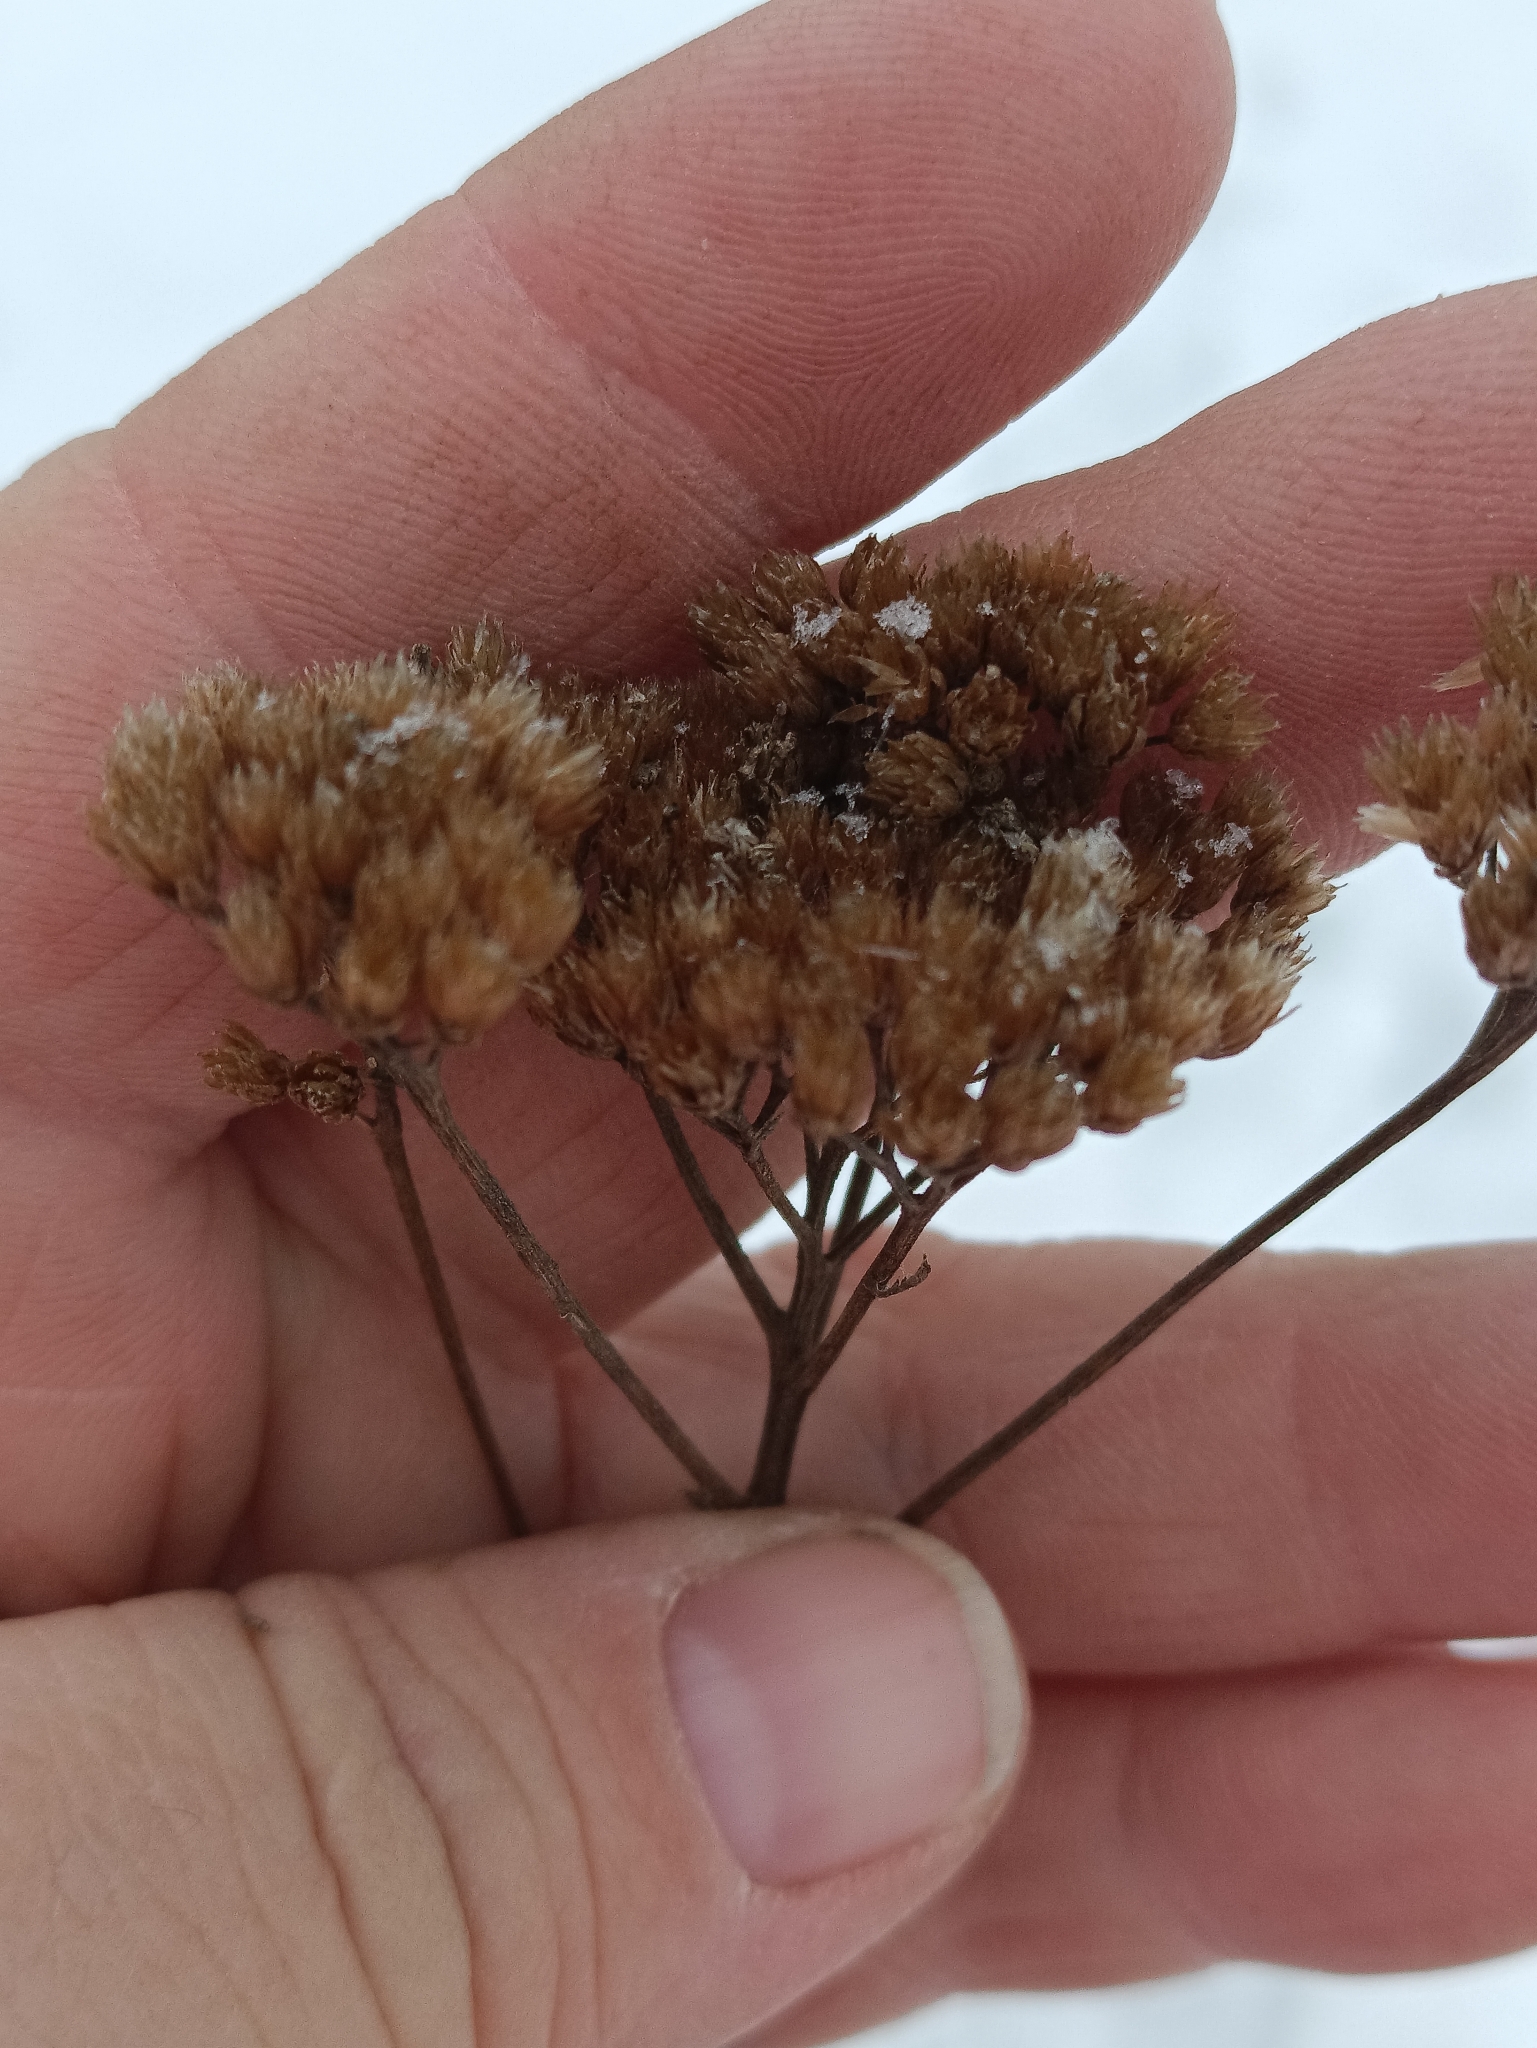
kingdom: Plantae
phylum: Tracheophyta
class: Magnoliopsida
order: Asterales
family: Asteraceae
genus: Achillea
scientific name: Achillea millefolium
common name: Yarrow
